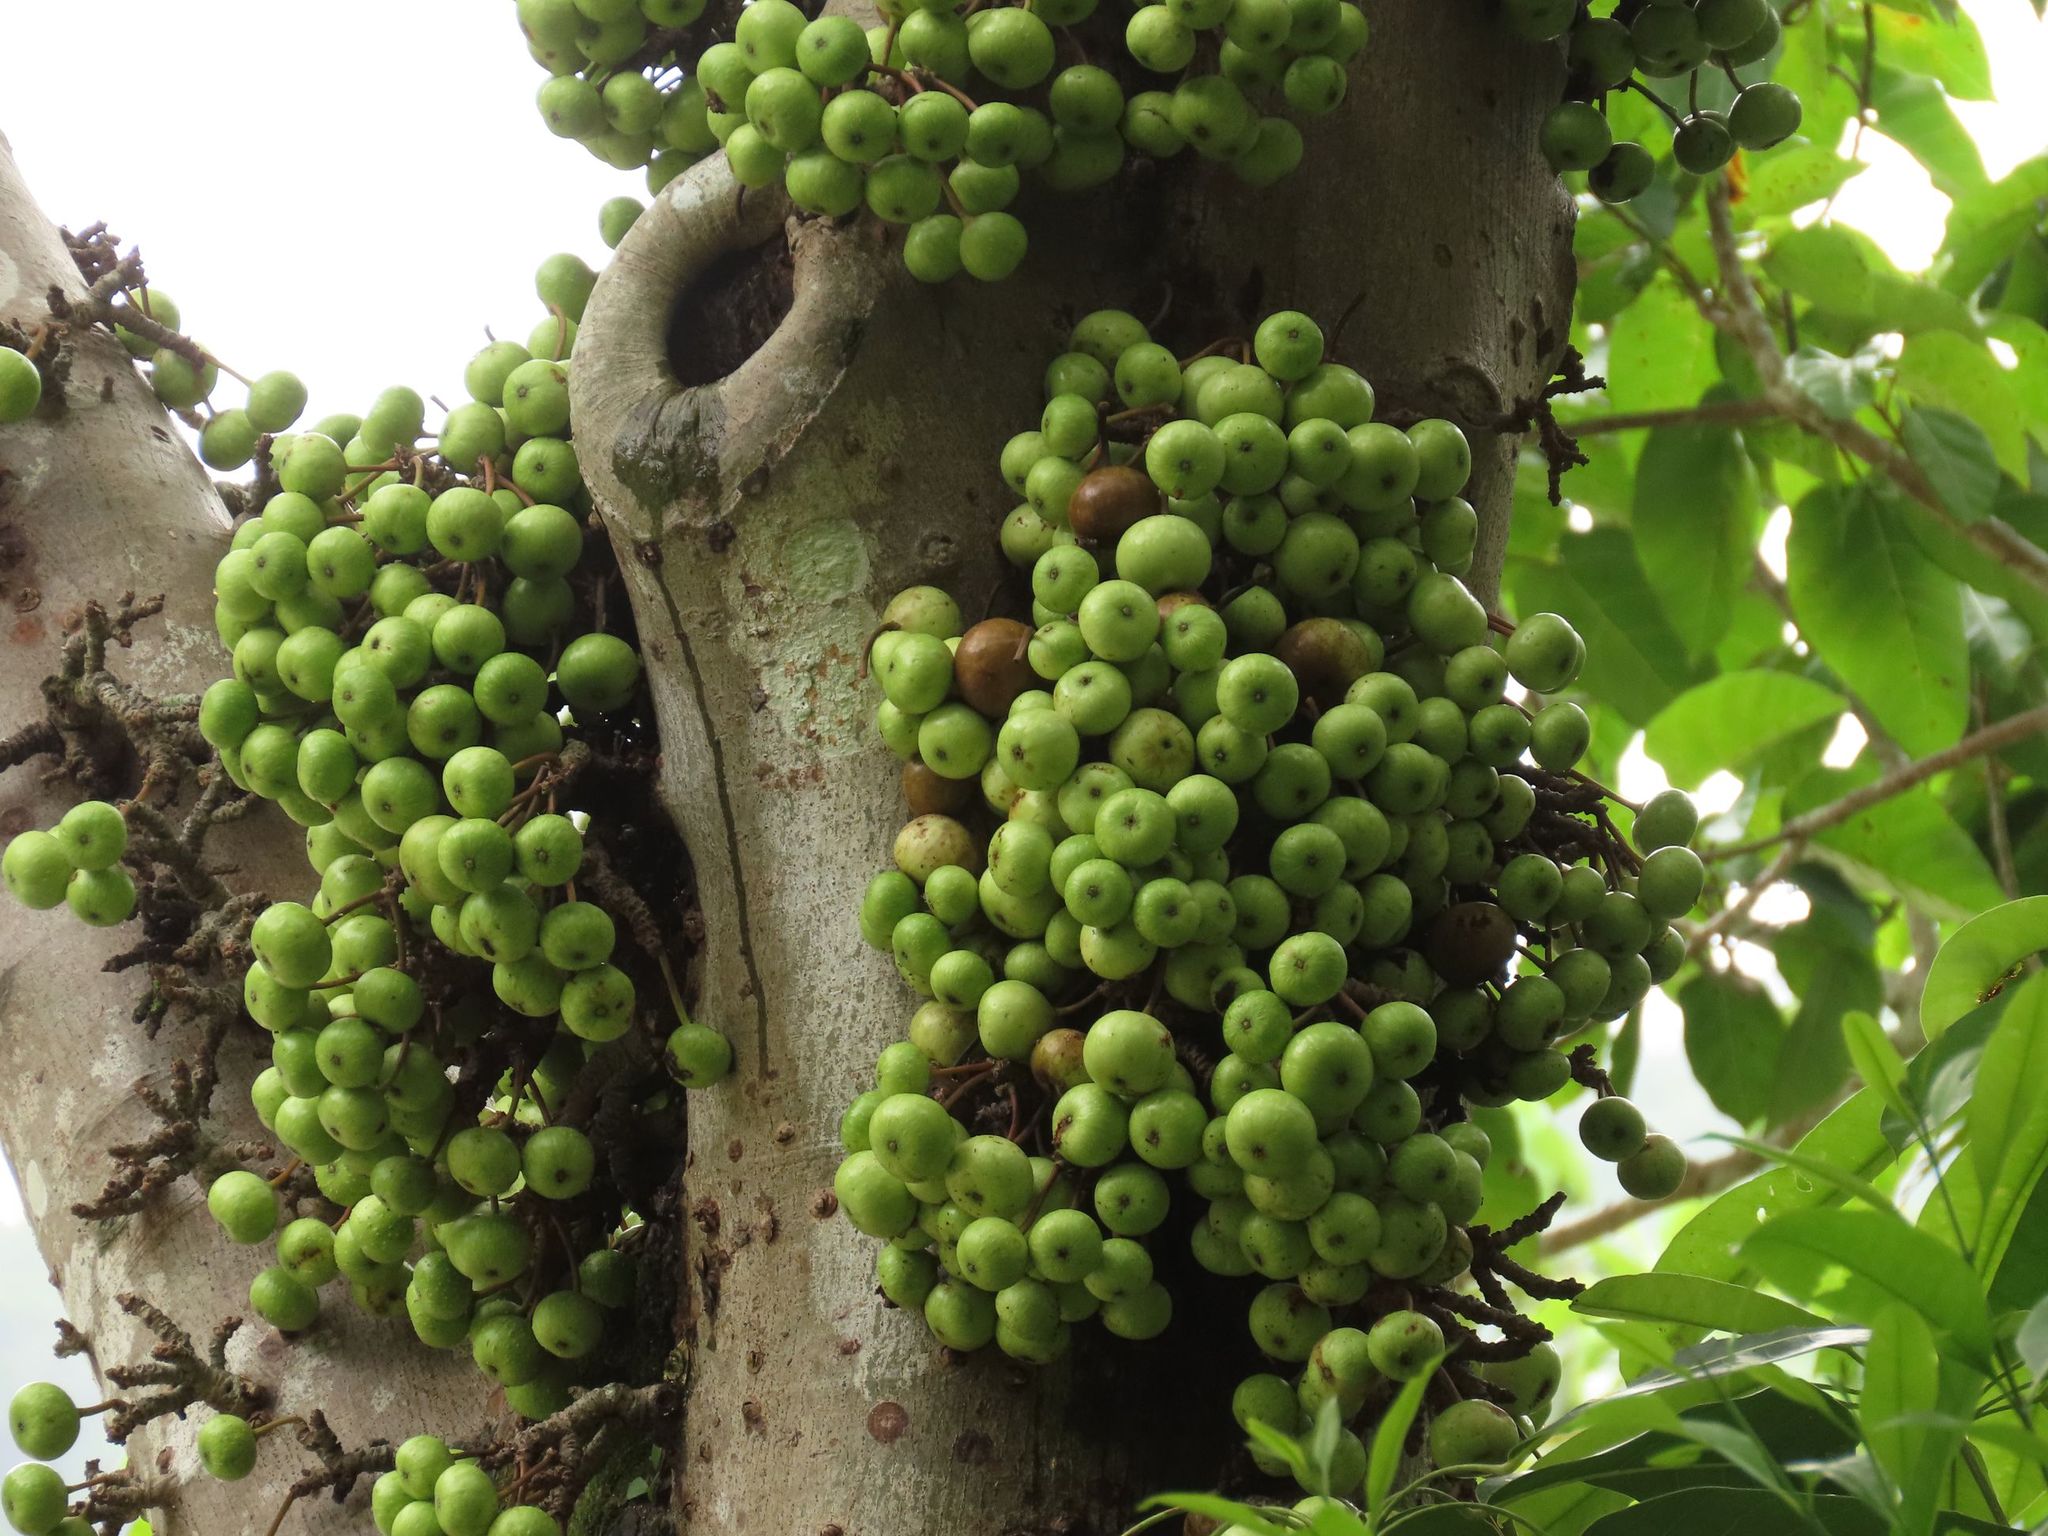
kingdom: Plantae
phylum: Tracheophyta
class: Magnoliopsida
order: Rosales
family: Moraceae
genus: Ficus
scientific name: Ficus variegata
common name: Variegated fig
